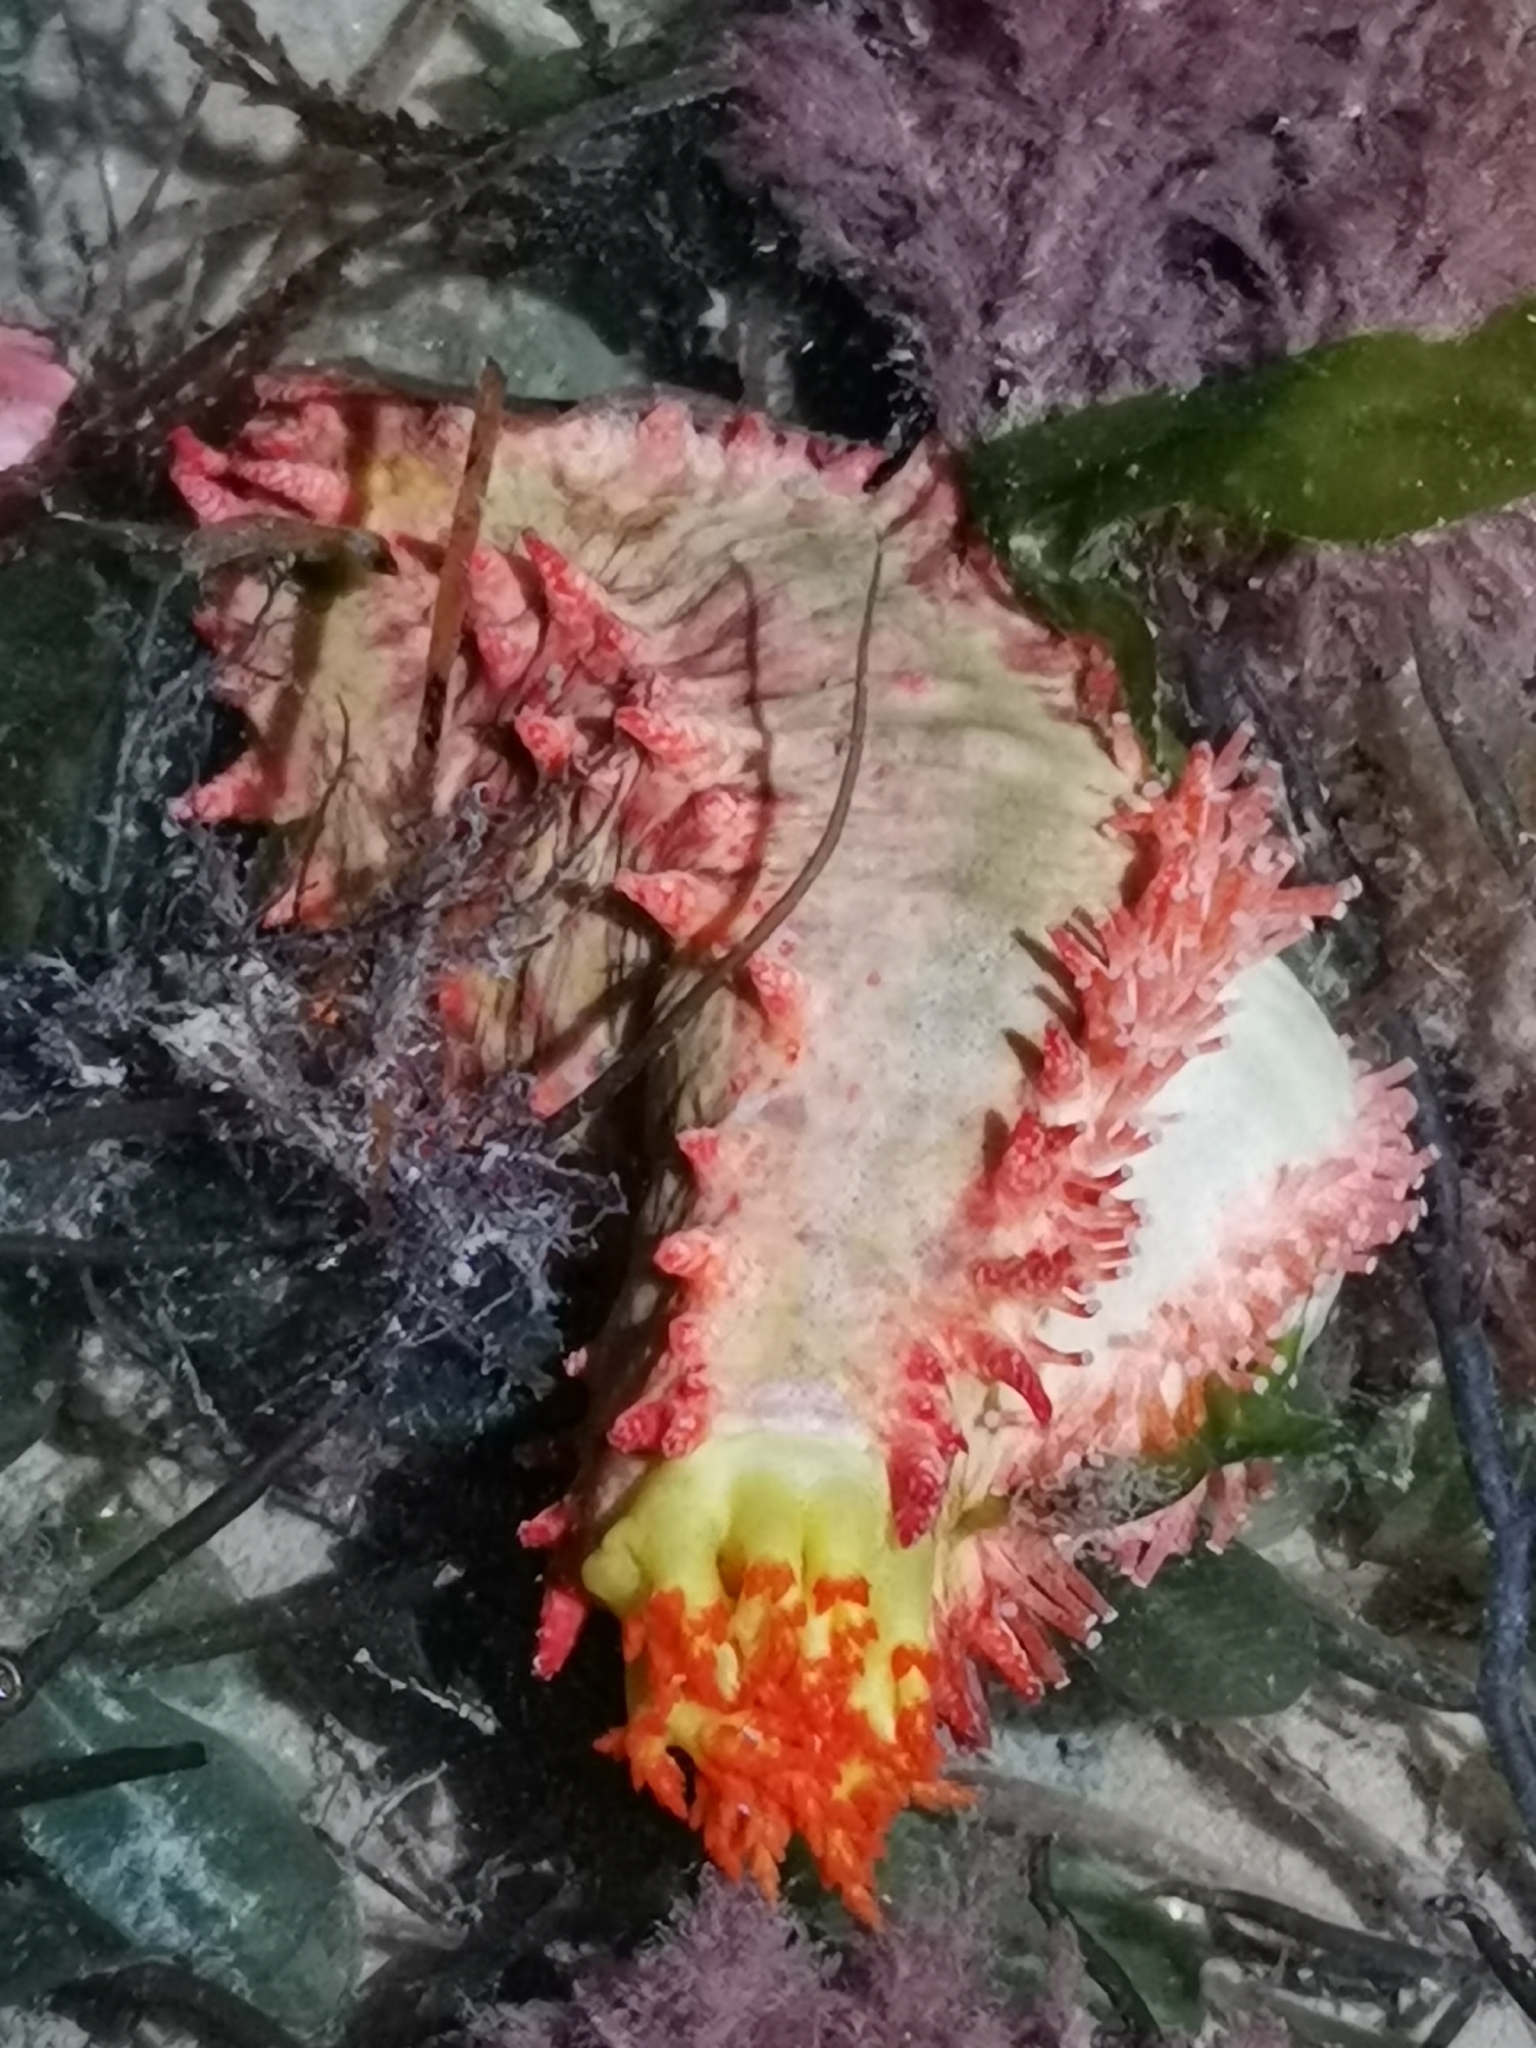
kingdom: Animalia
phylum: Echinodermata
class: Holothuroidea
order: Dendrochirotida
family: Cucumariidae
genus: Colochirus
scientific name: Colochirus quadrangularis
